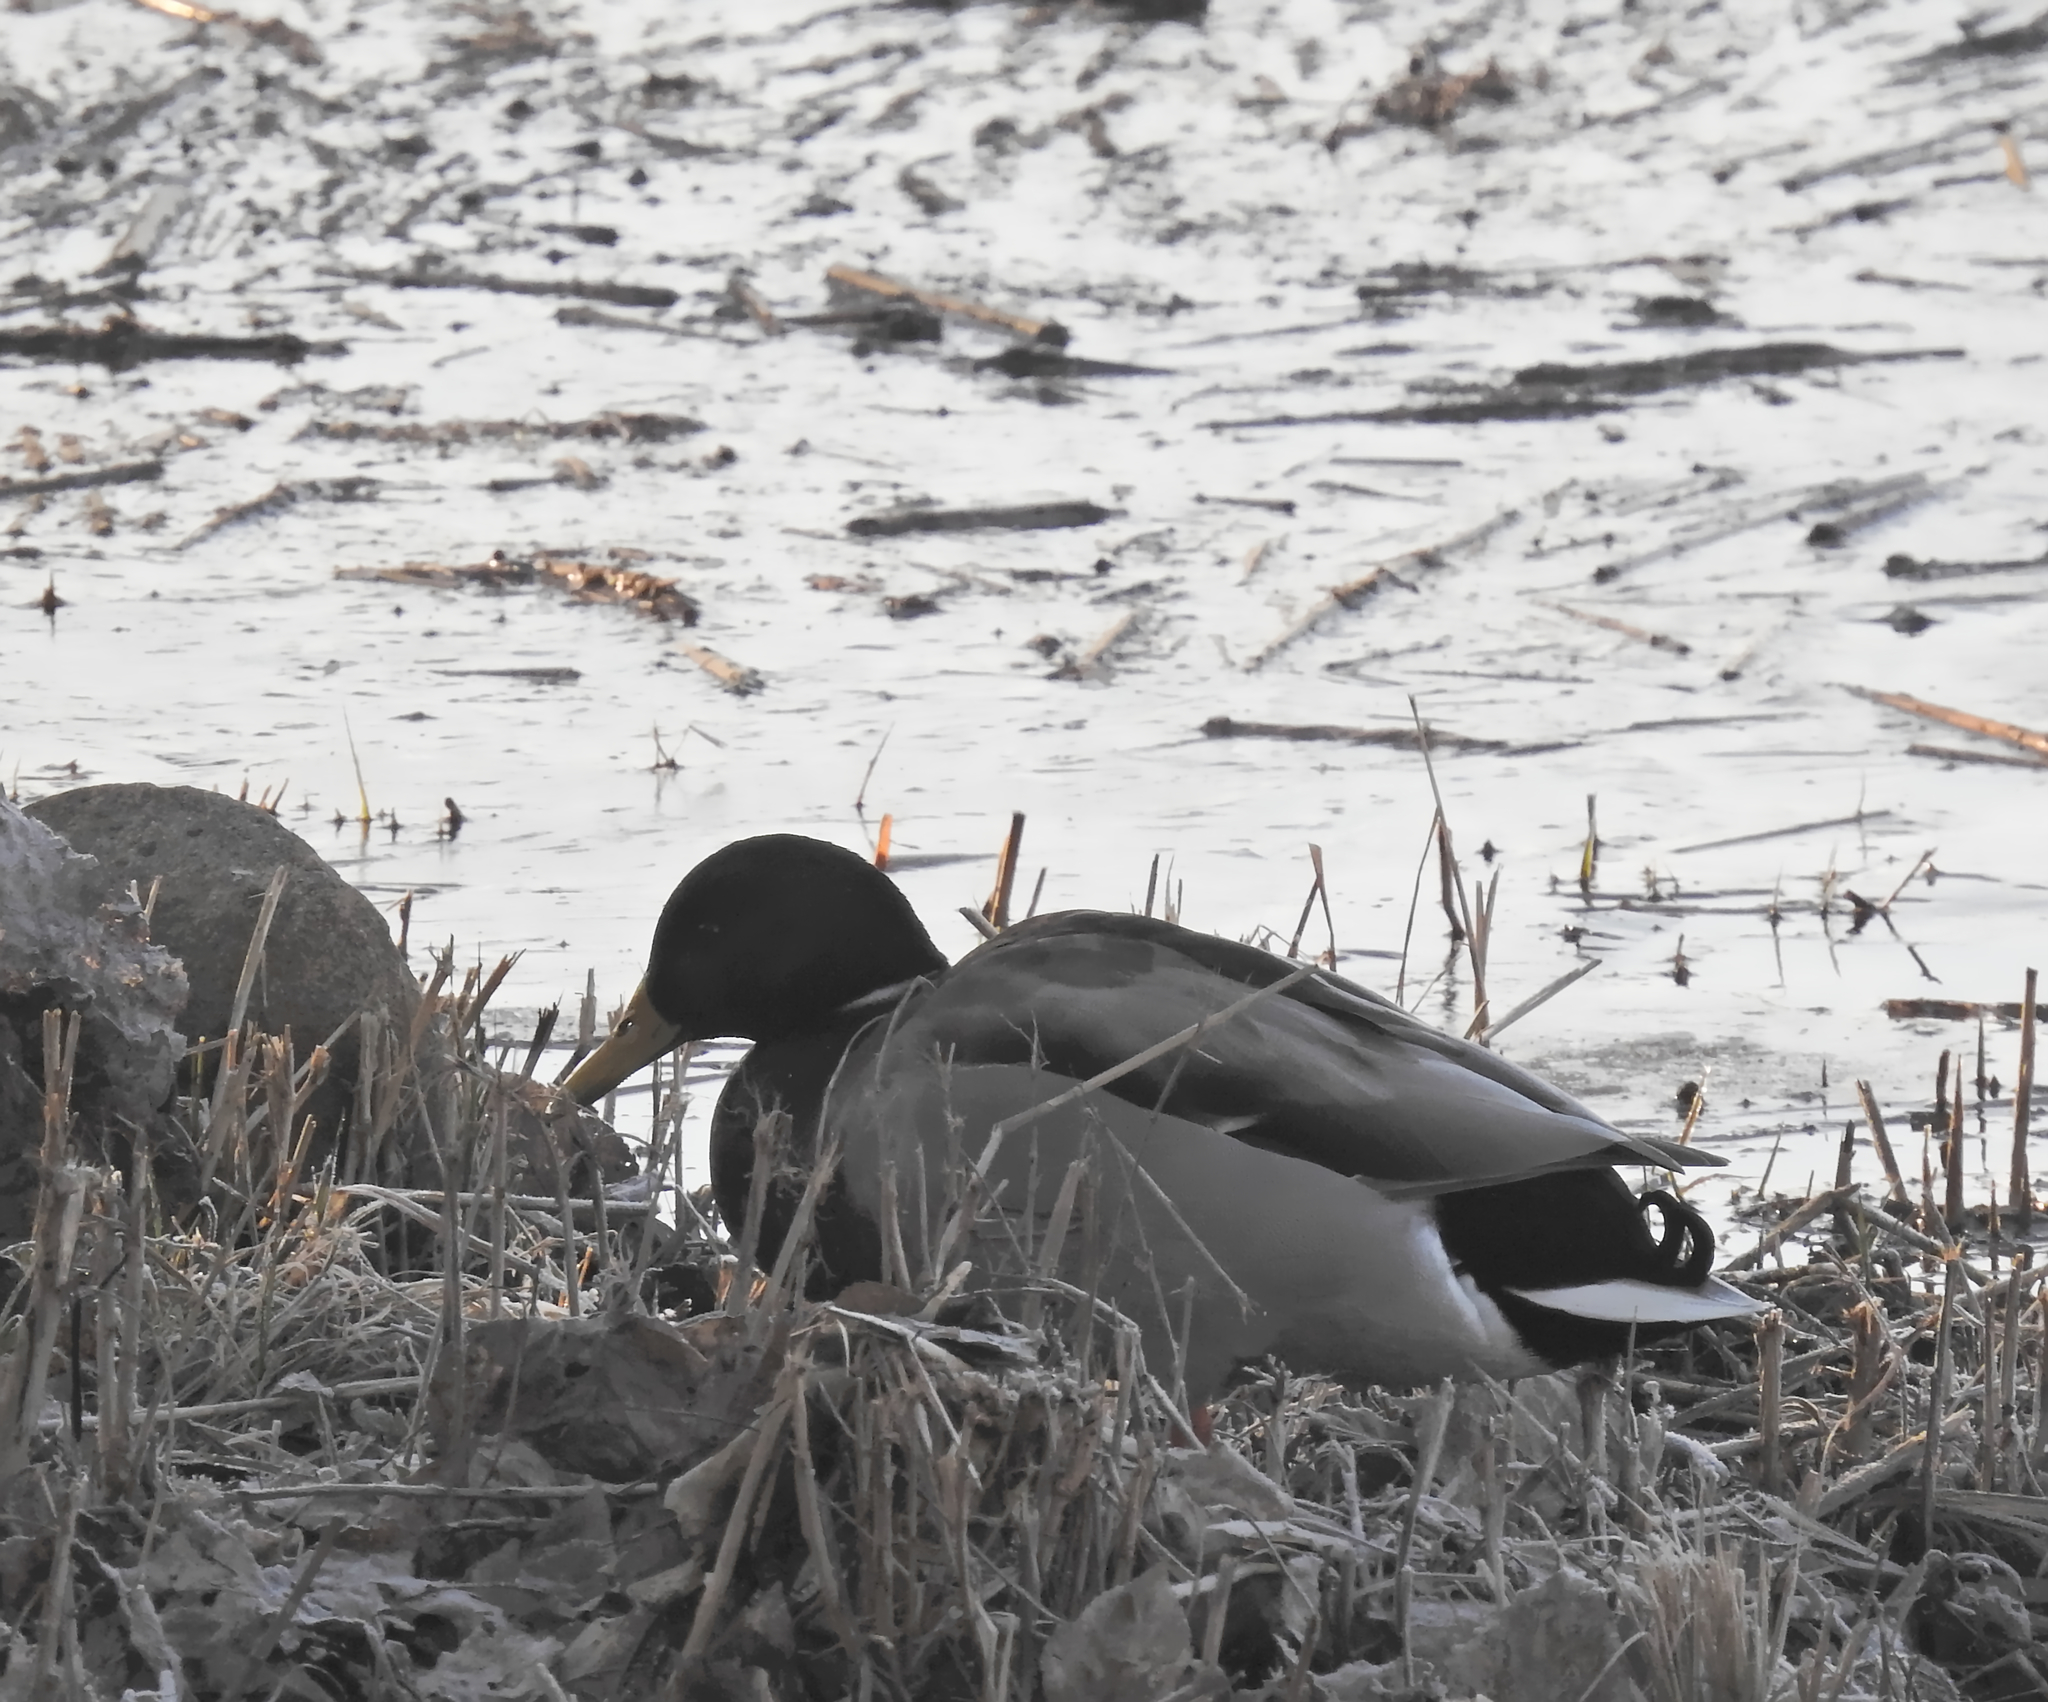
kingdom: Animalia
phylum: Chordata
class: Aves
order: Anseriformes
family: Anatidae
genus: Anas
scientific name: Anas platyrhynchos
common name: Mallard
